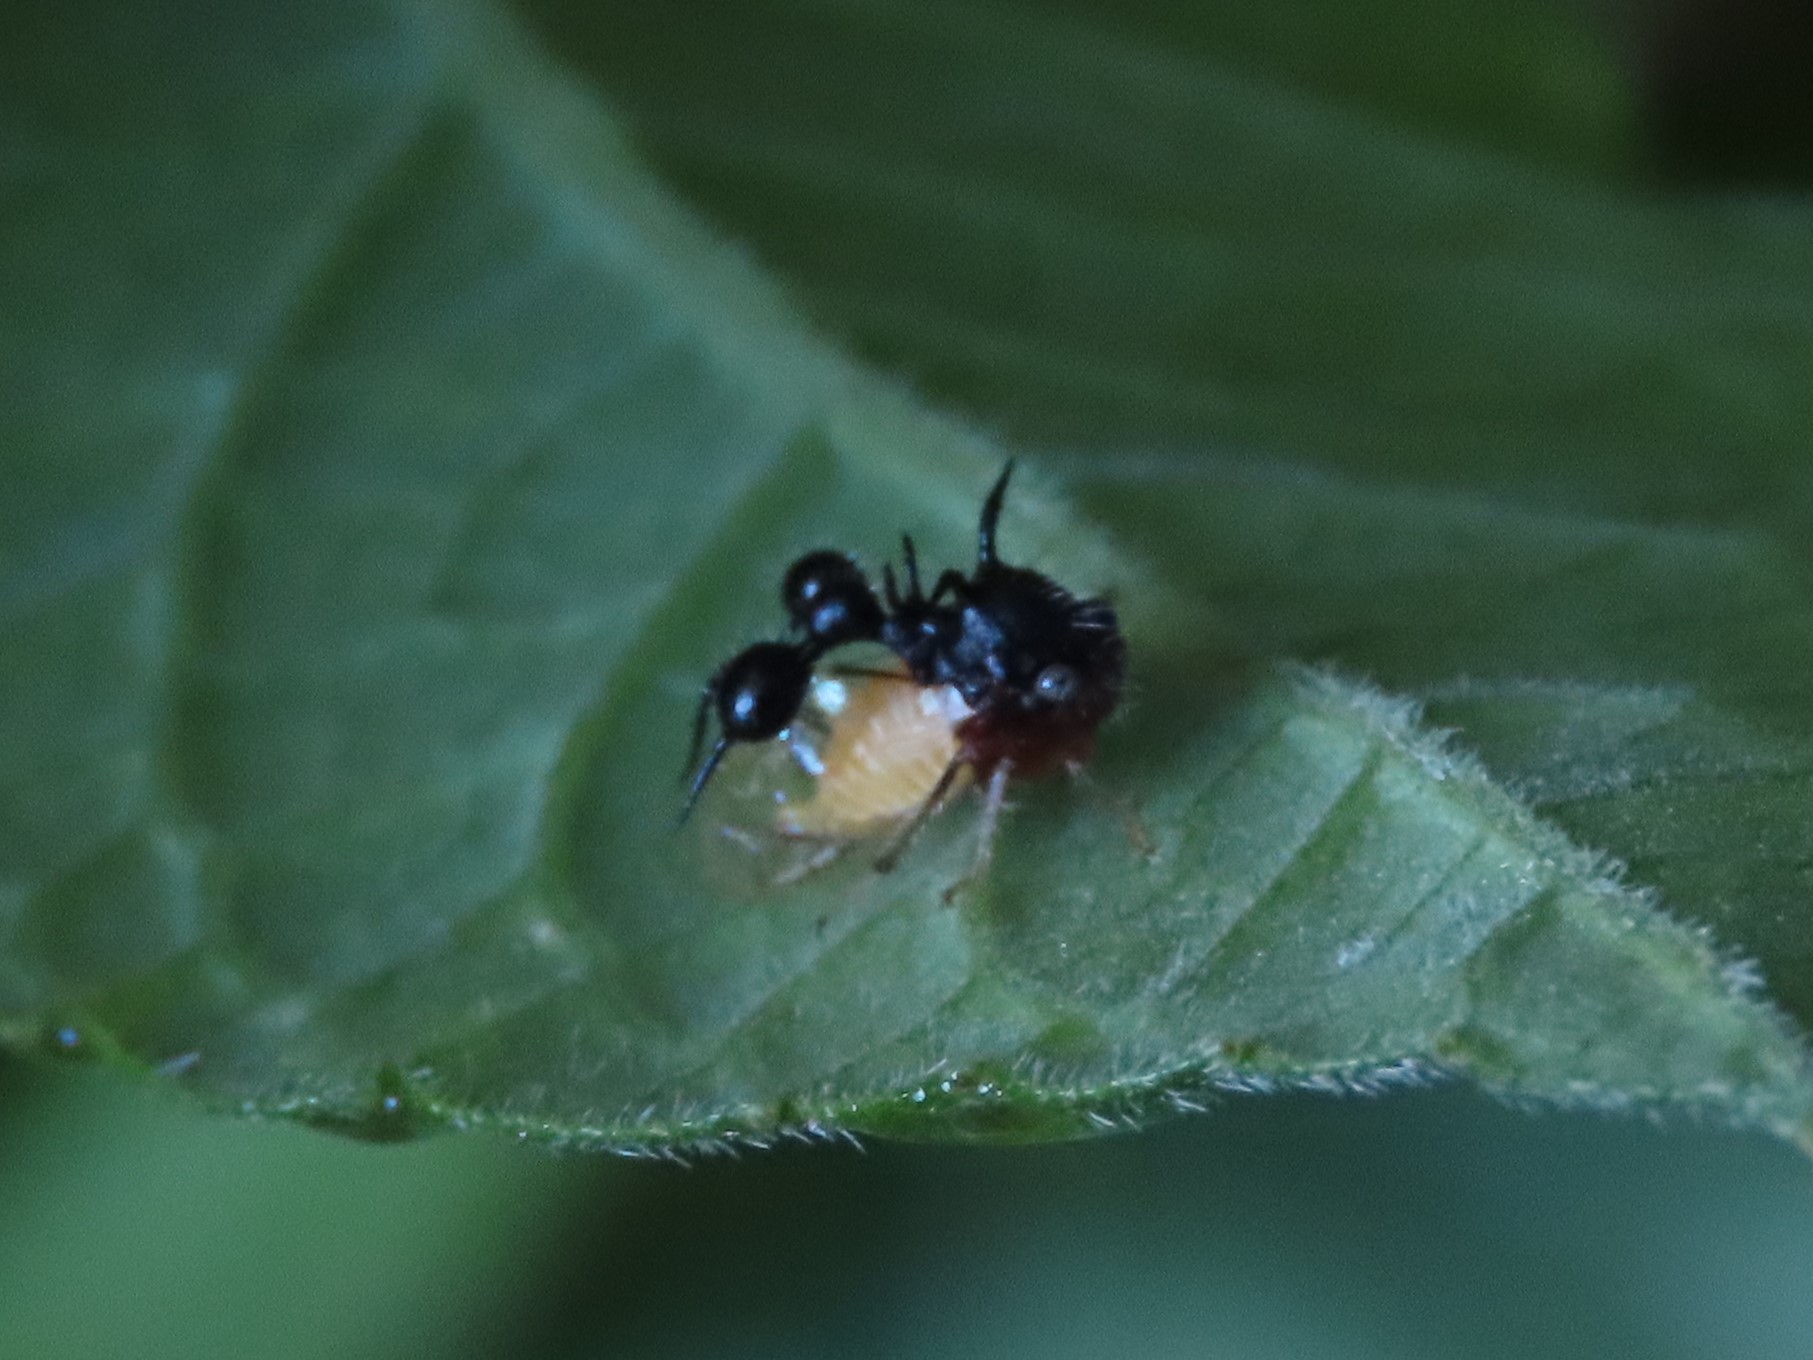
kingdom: Animalia
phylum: Arthropoda
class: Insecta
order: Hemiptera
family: Membracidae
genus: Cyphonia
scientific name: Cyphonia clavata
